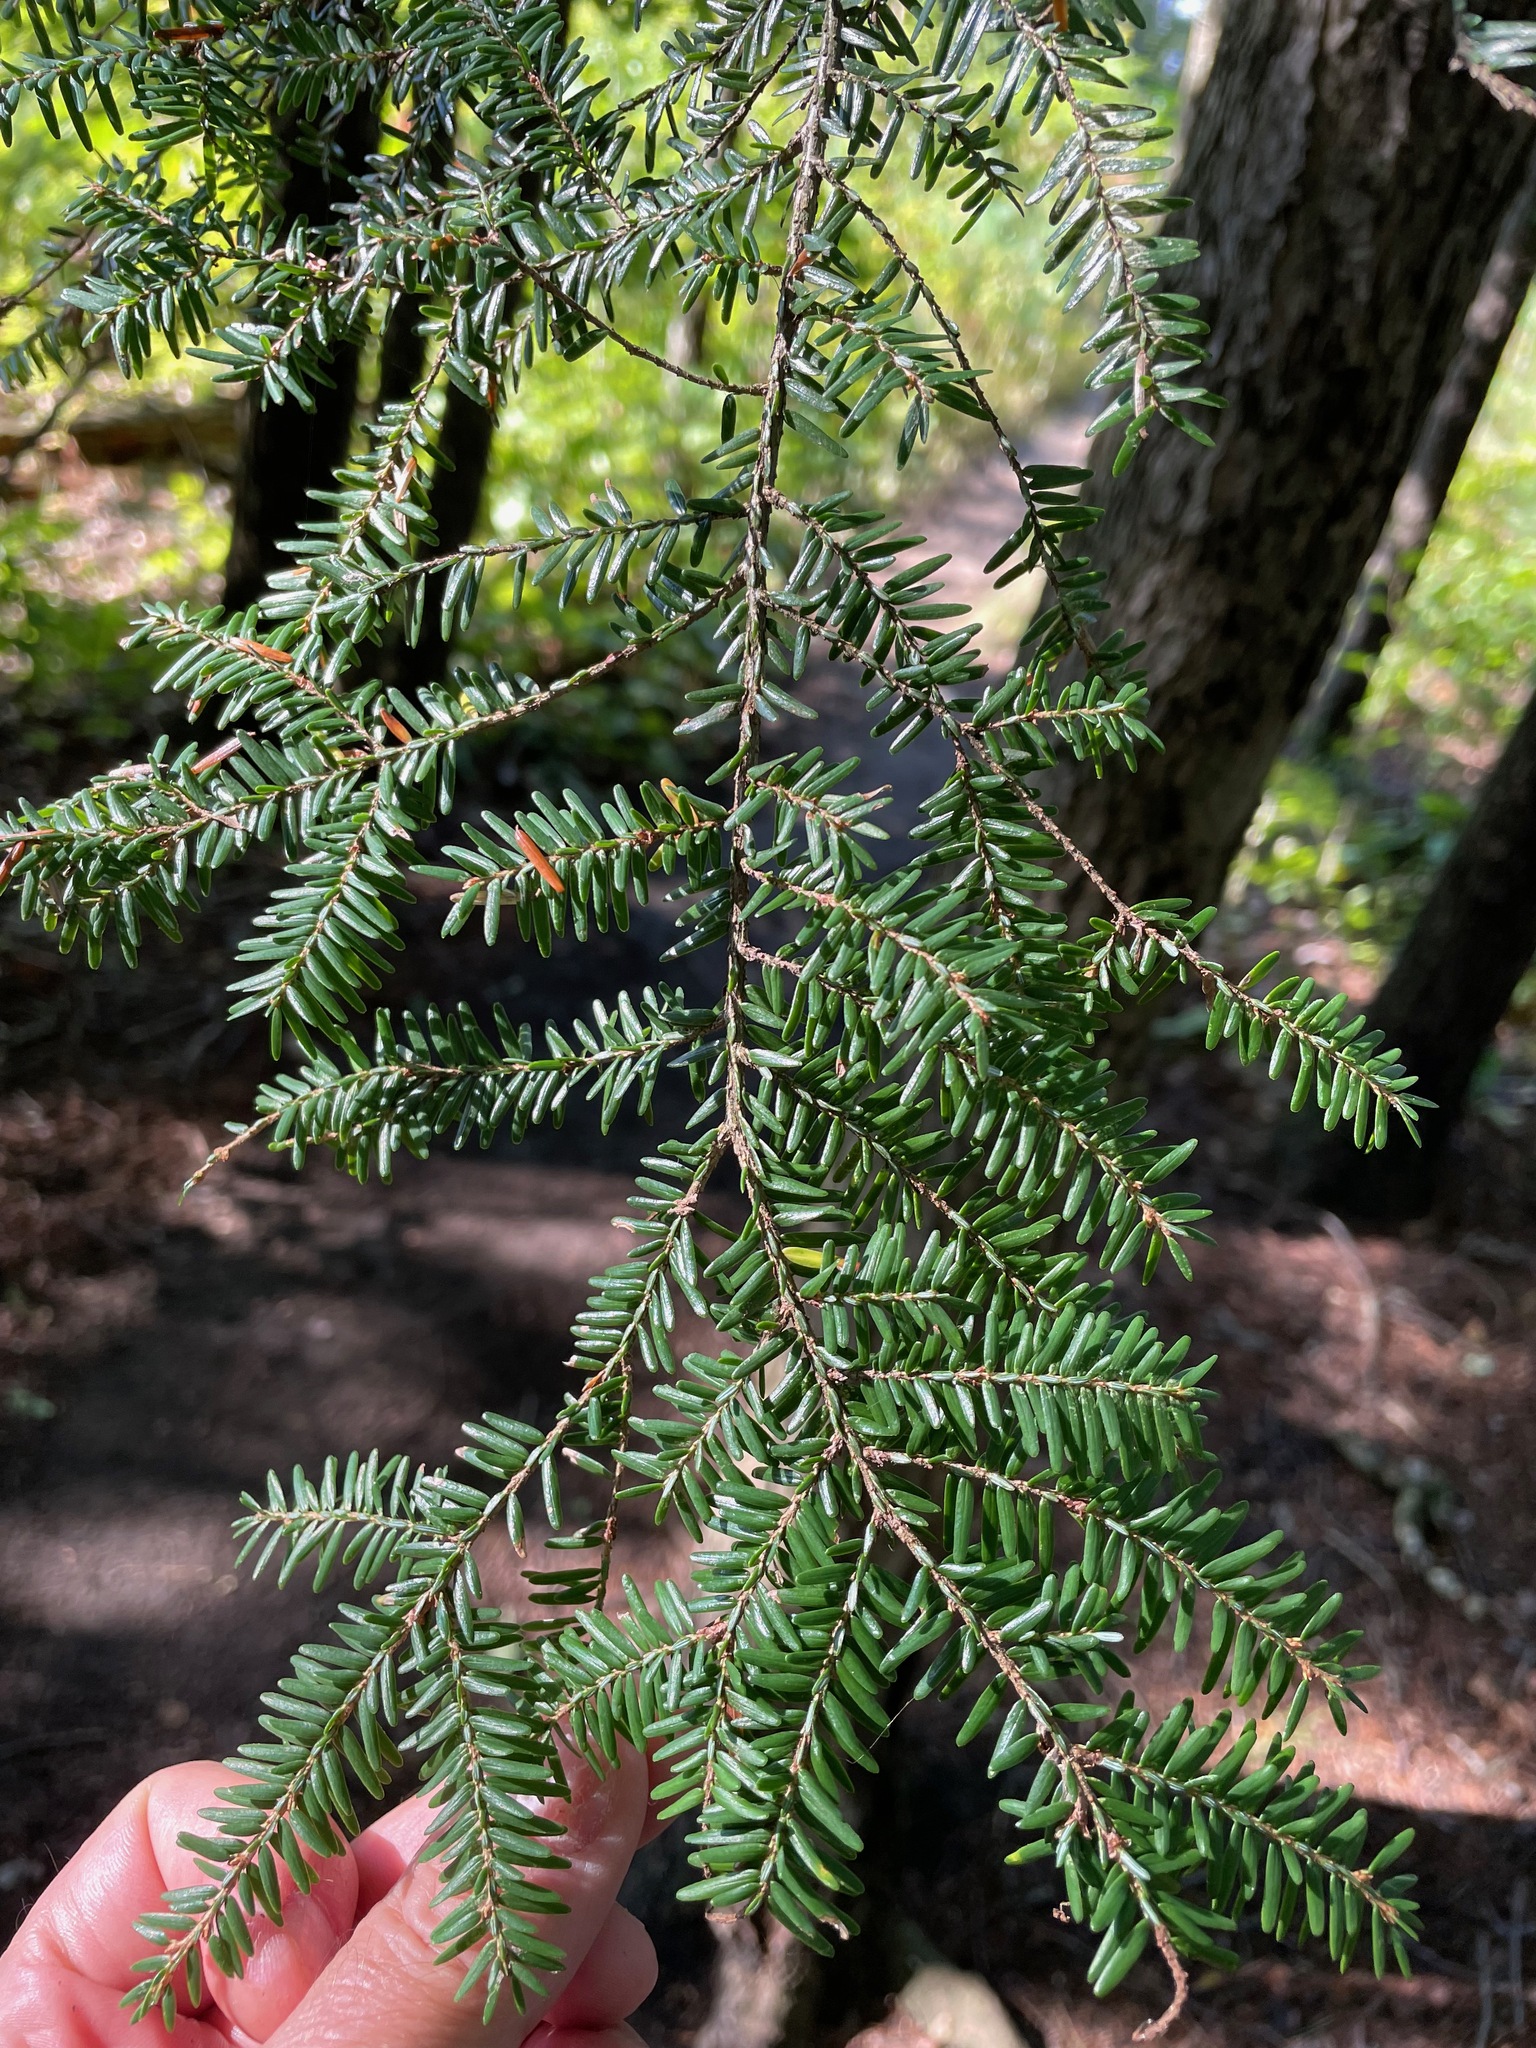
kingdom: Plantae
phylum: Tracheophyta
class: Pinopsida
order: Pinales
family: Pinaceae
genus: Tsuga
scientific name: Tsuga canadensis
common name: Eastern hemlock
